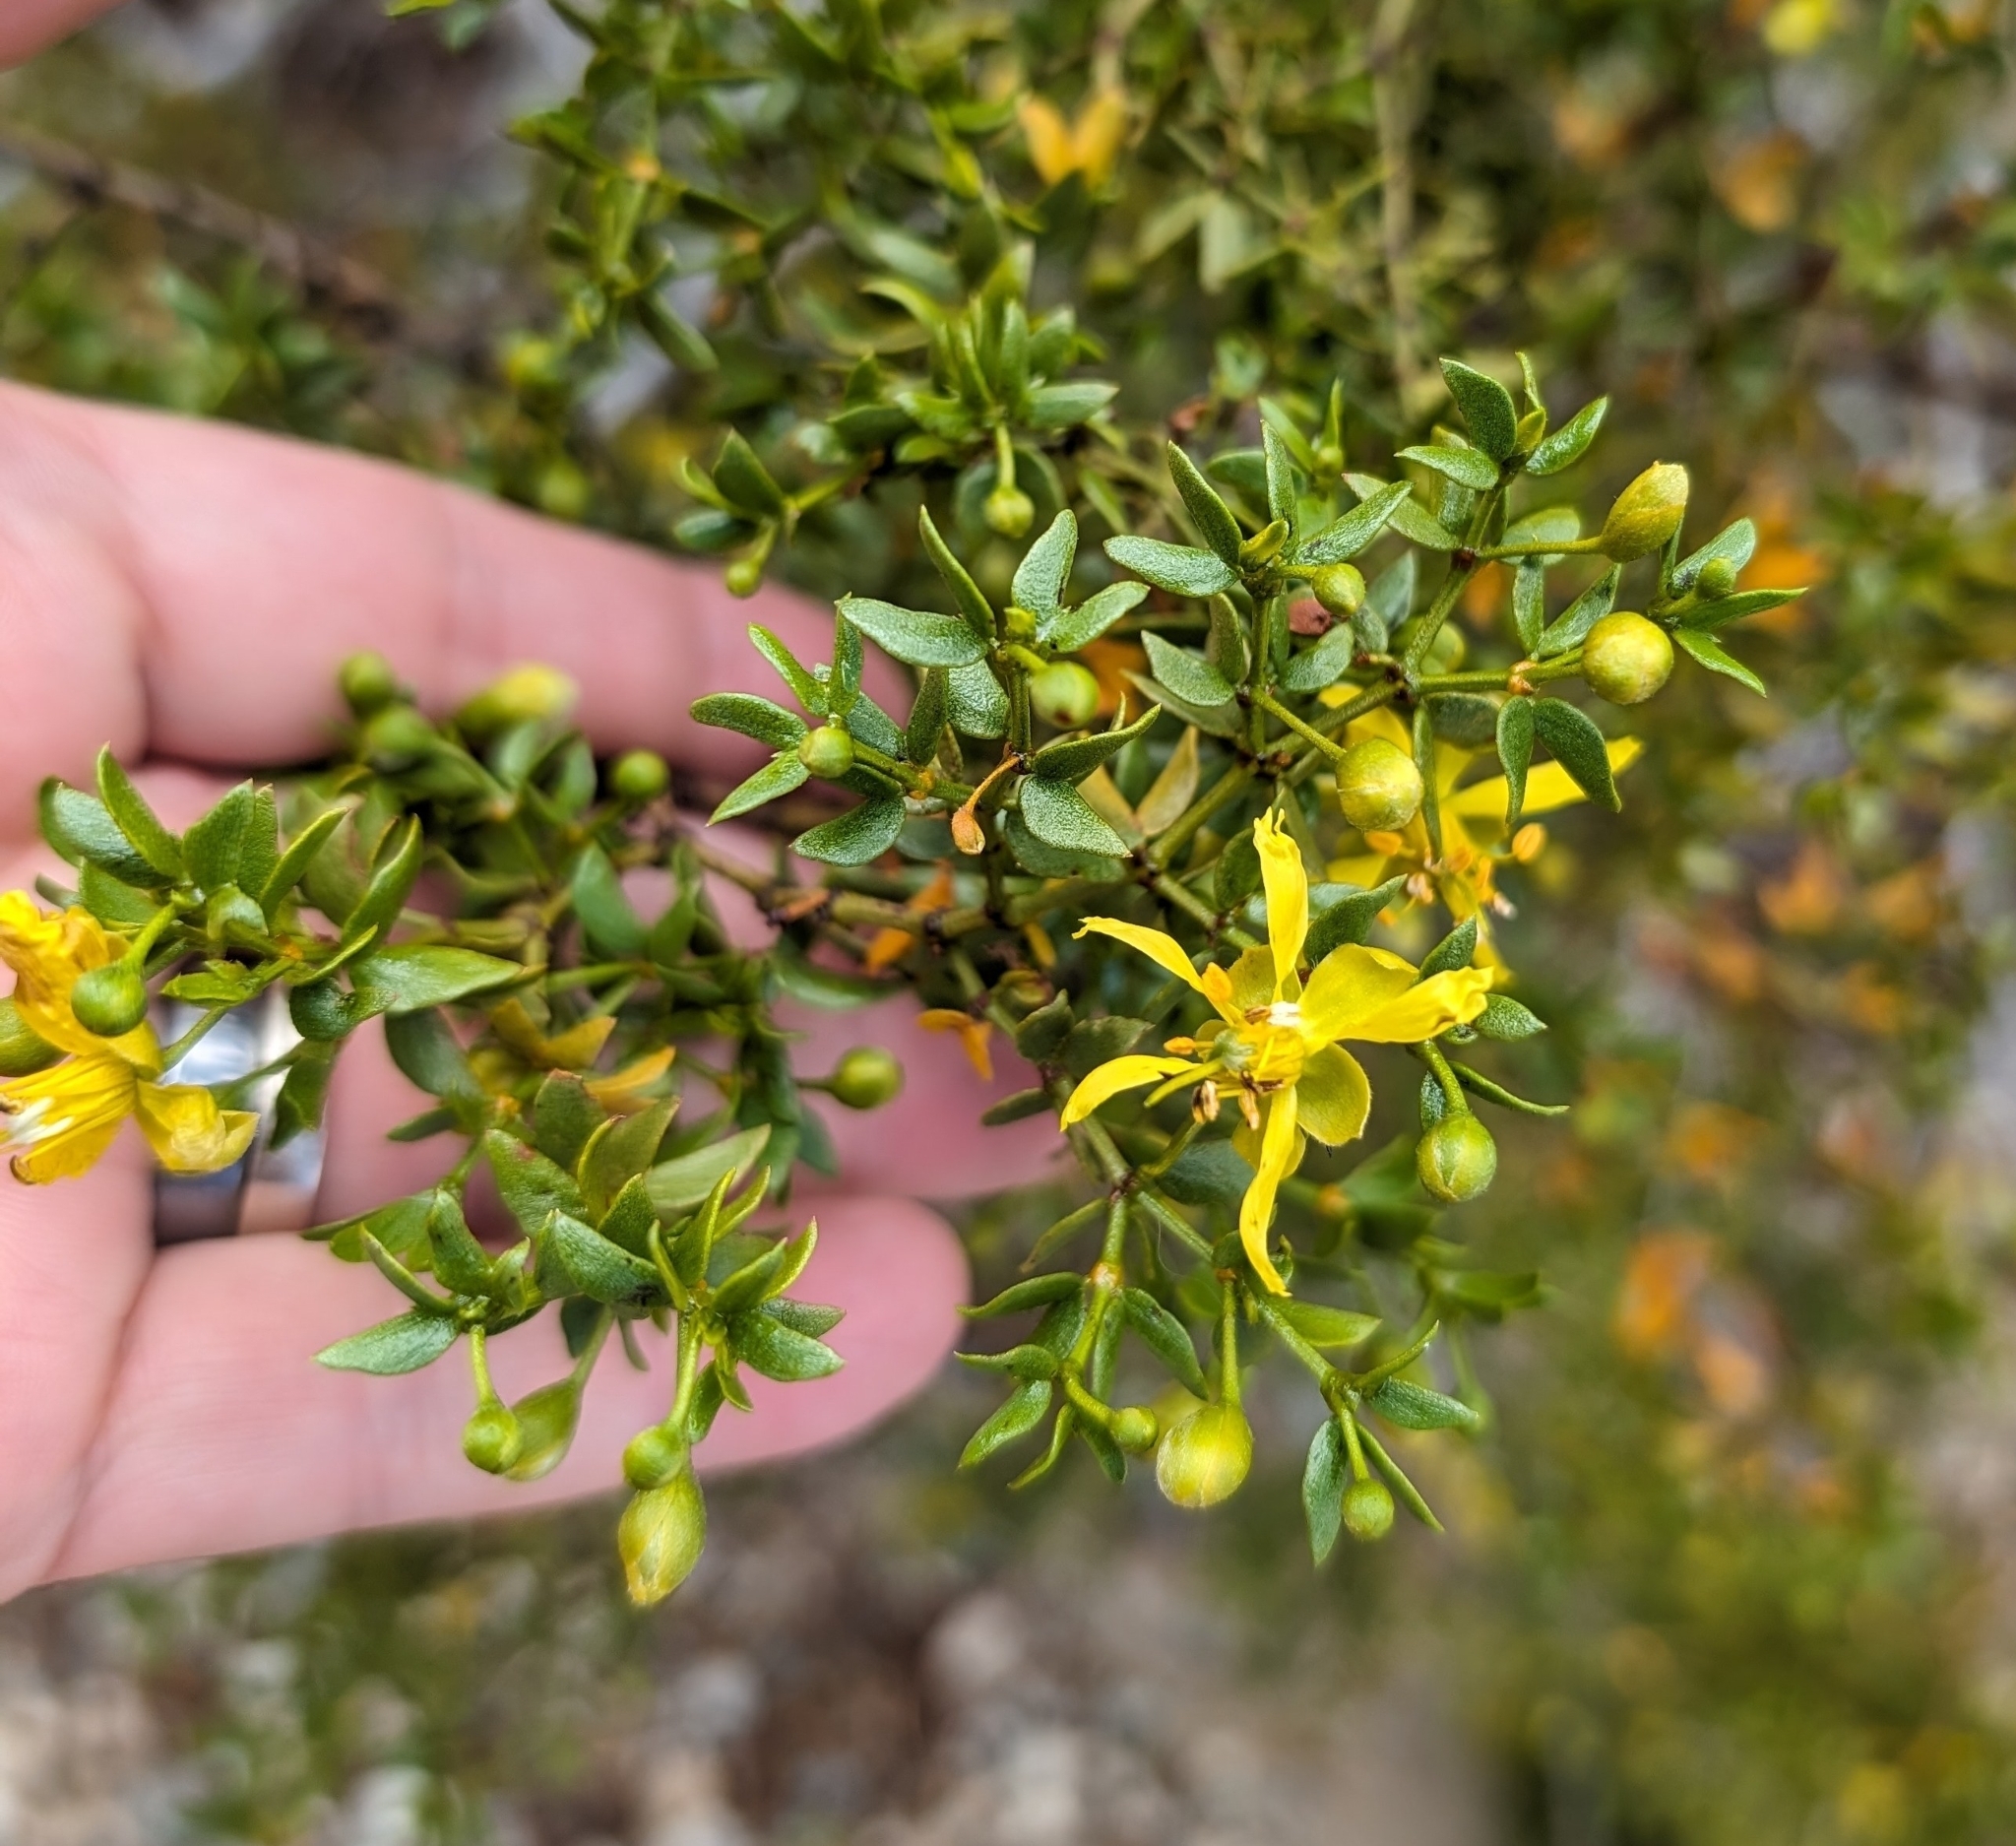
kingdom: Plantae
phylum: Tracheophyta
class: Magnoliopsida
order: Zygophyllales
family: Zygophyllaceae
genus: Larrea
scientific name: Larrea tridentata
